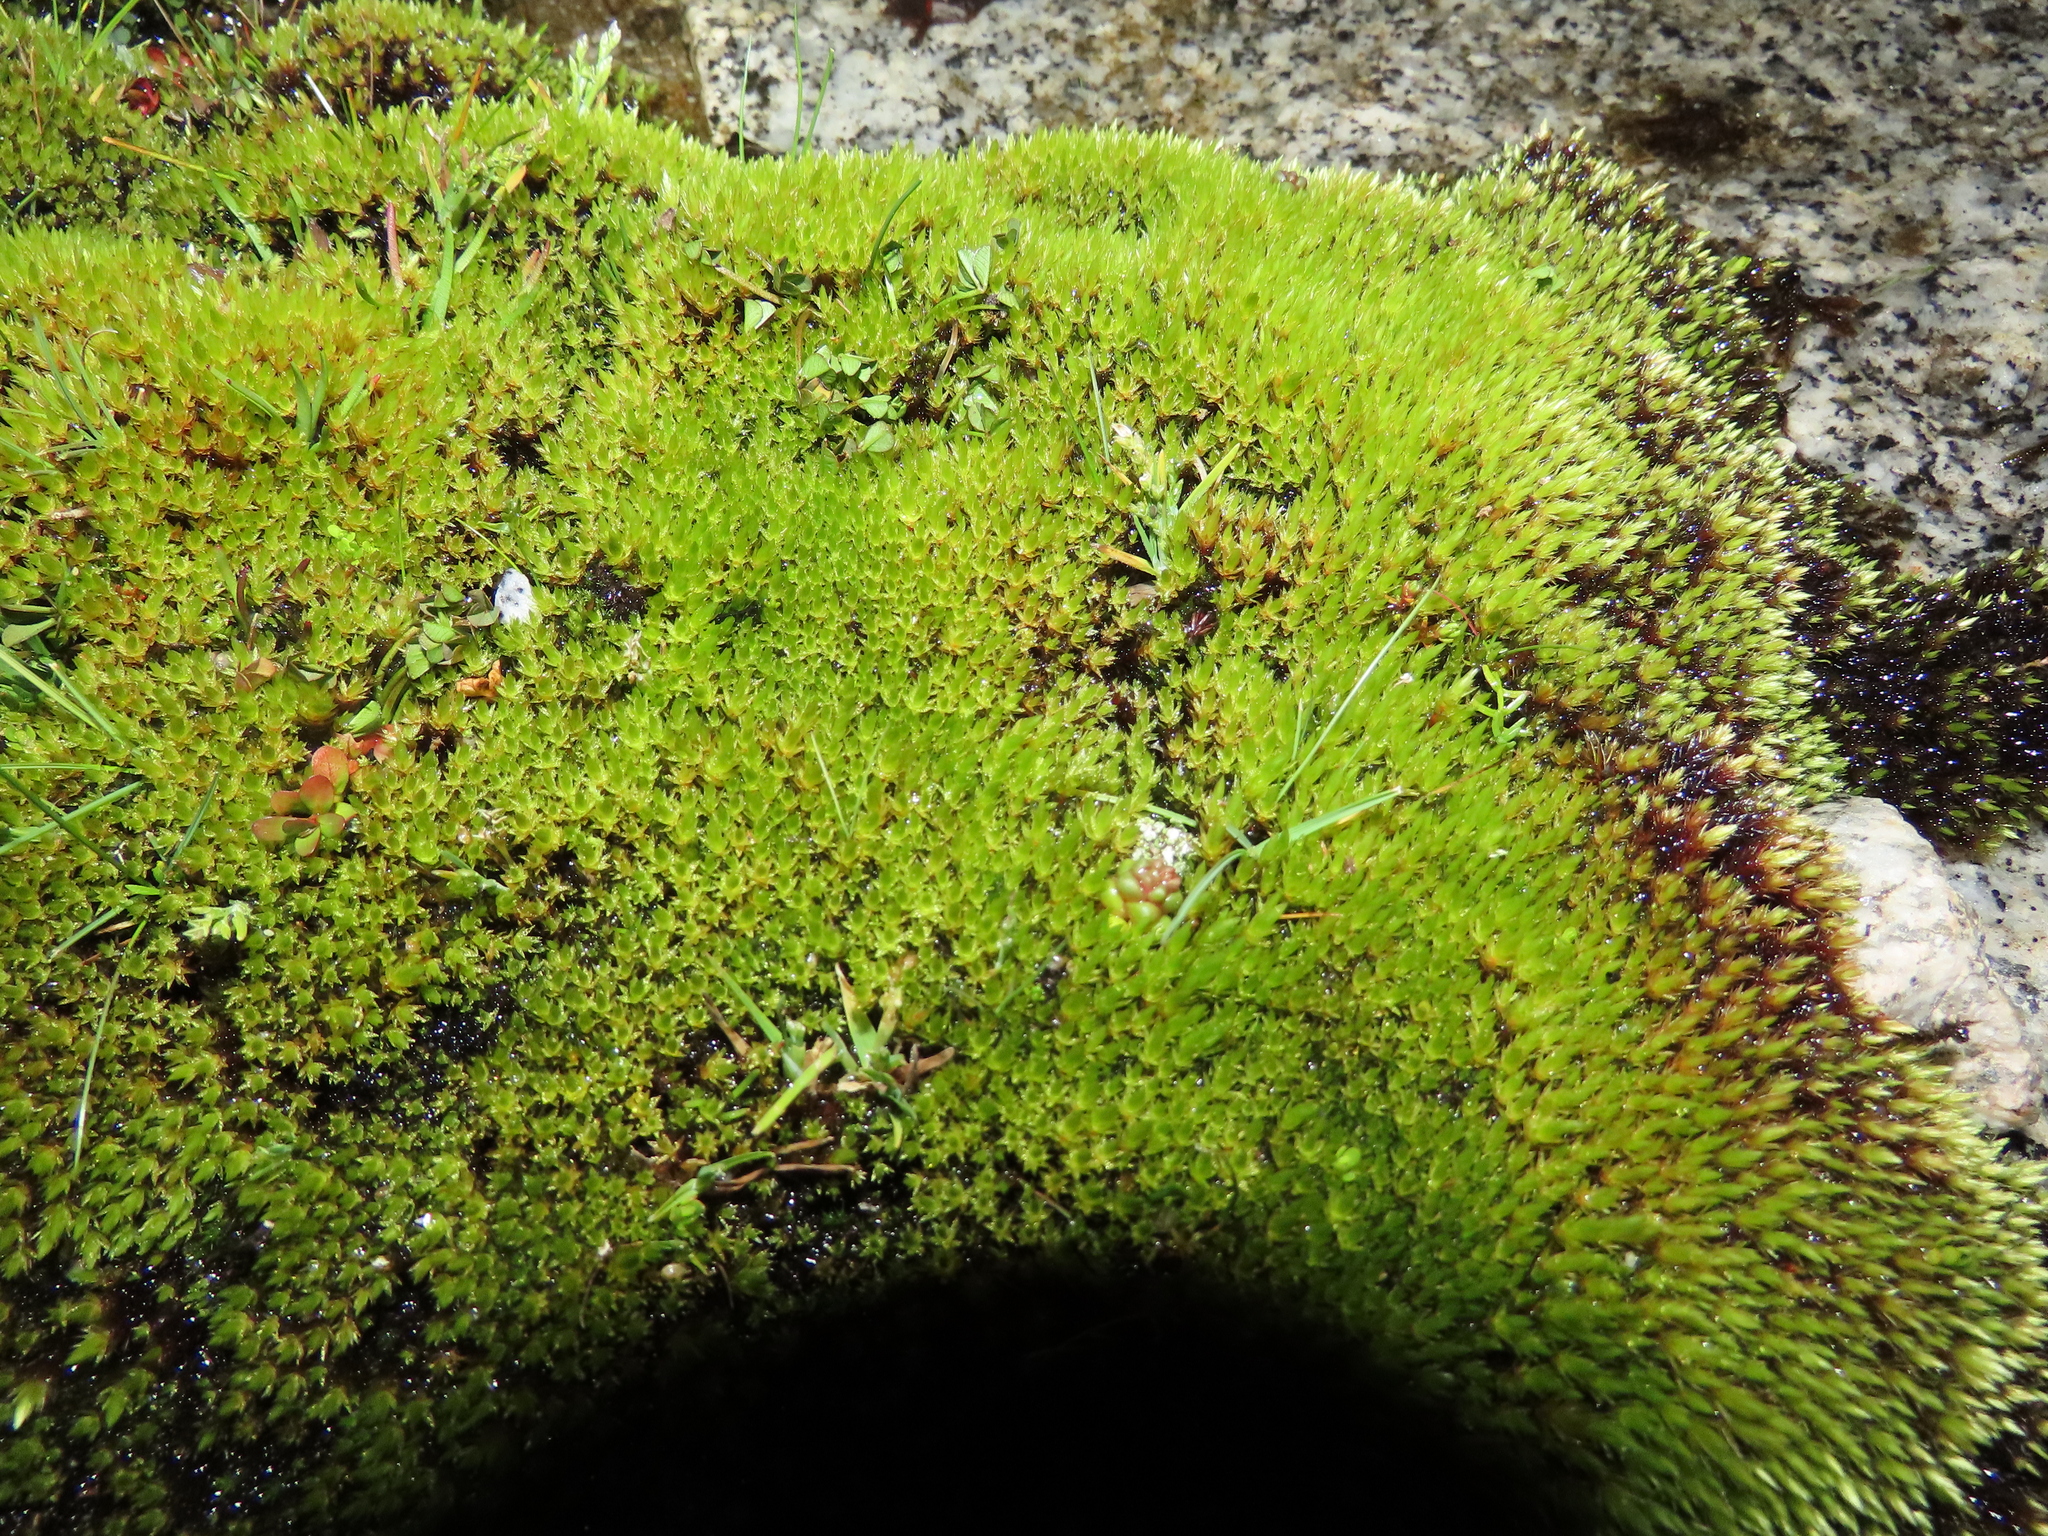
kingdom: Plantae
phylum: Bryophyta
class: Bryopsida
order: Bryales
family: Bryaceae
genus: Imbribryum
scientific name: Imbribryum alpinum
